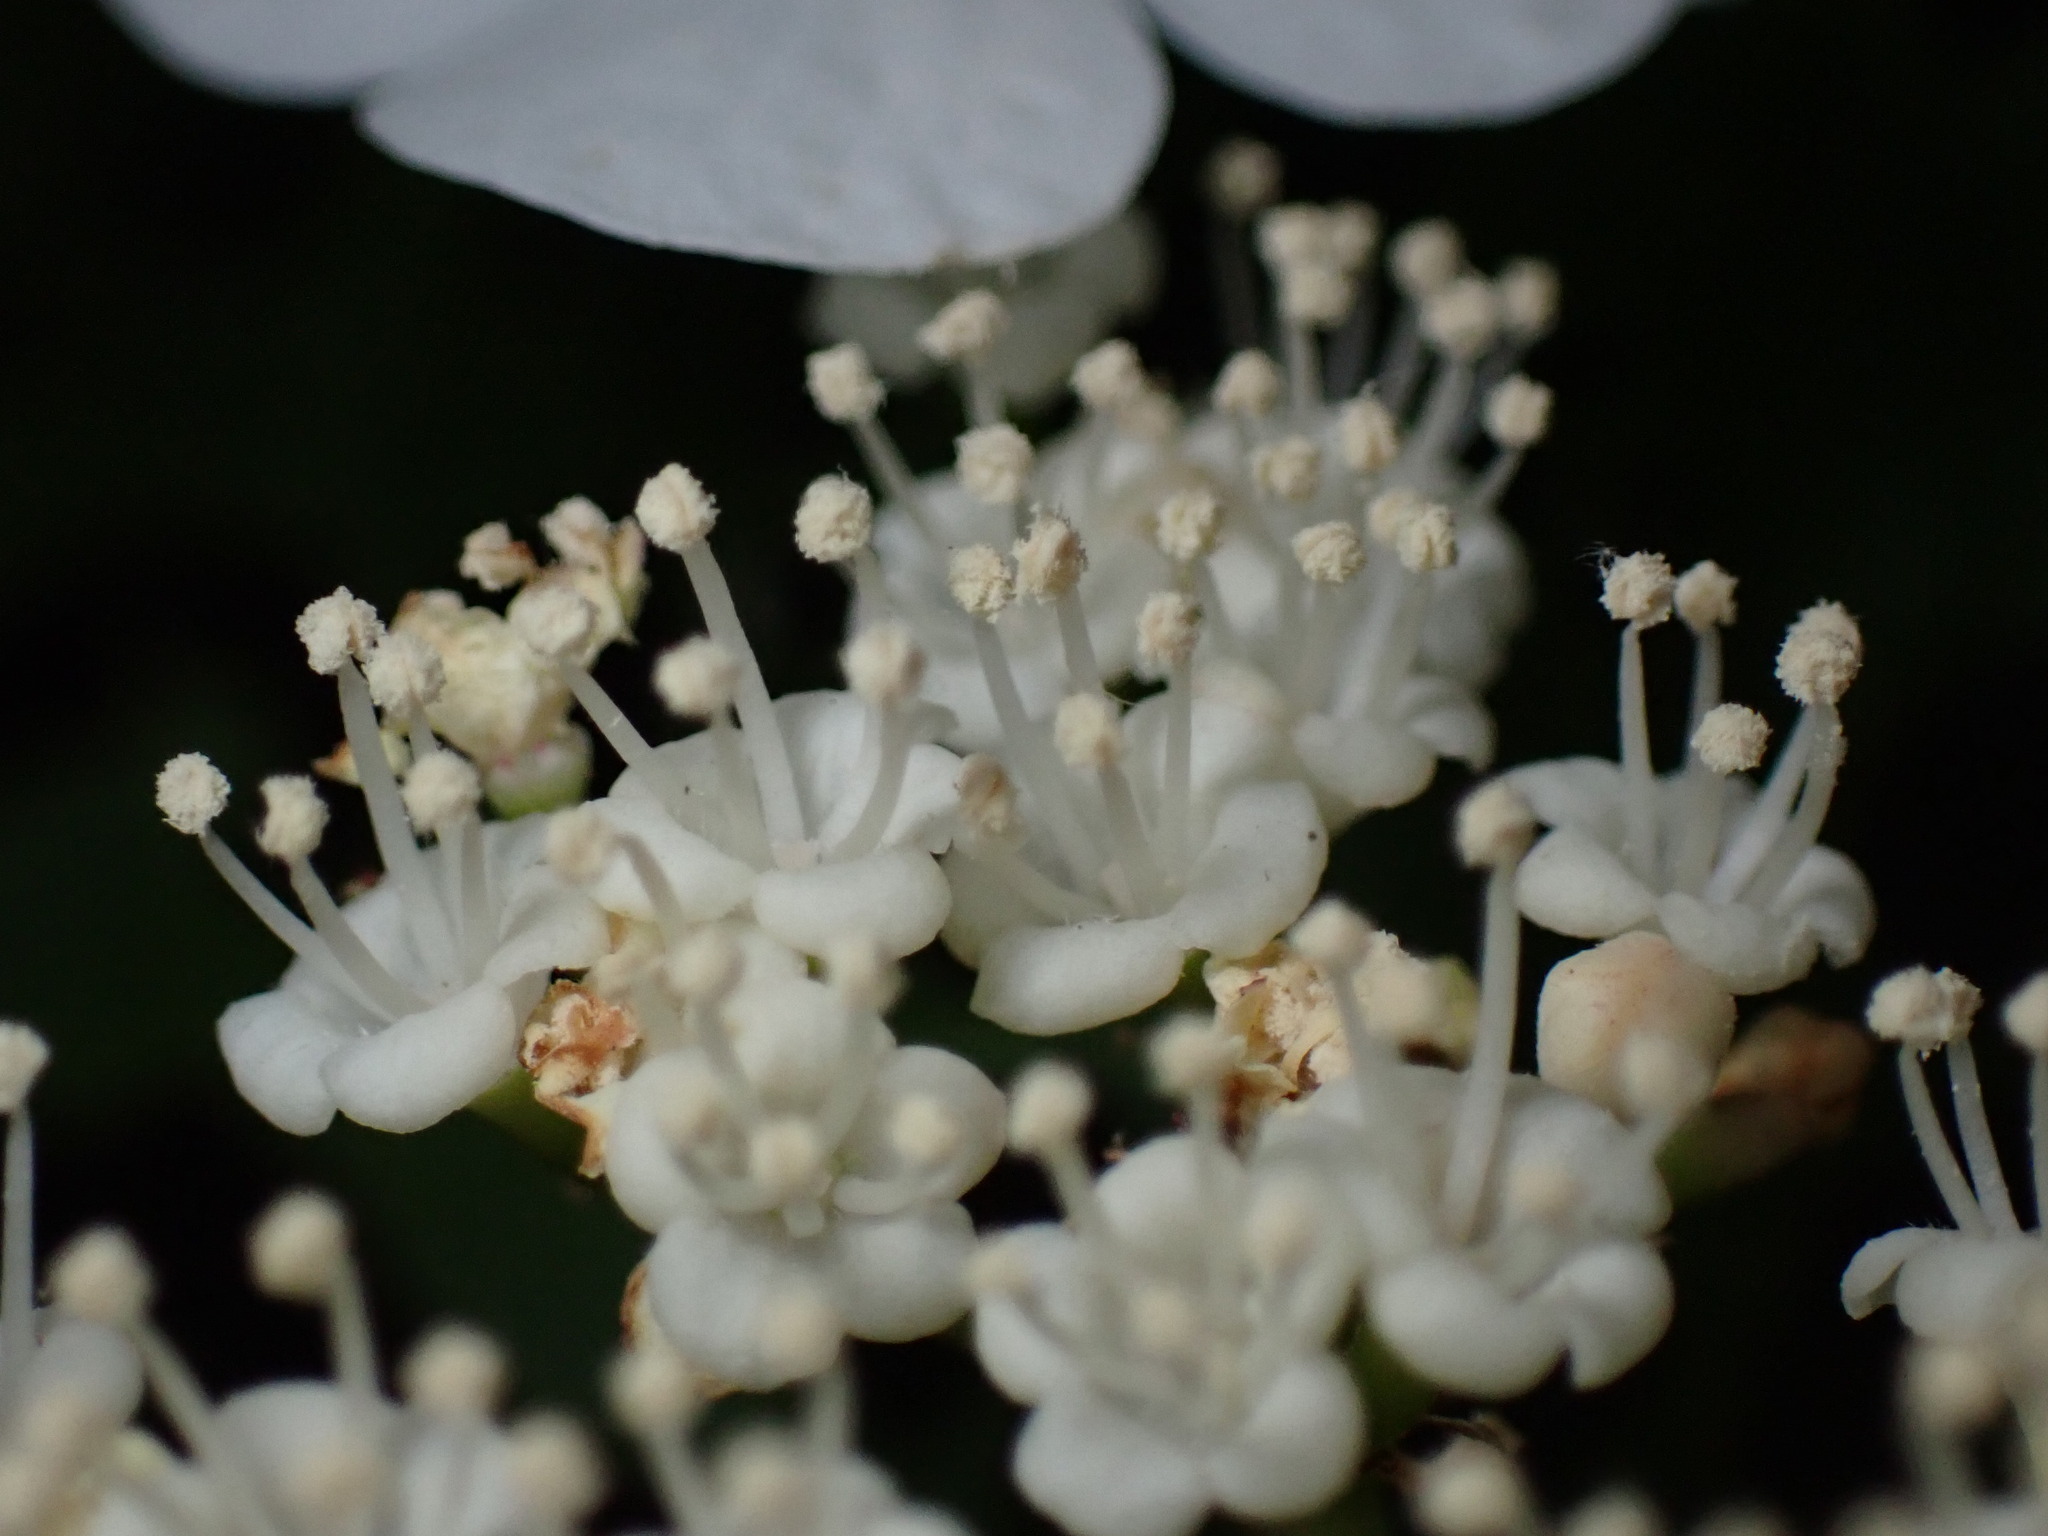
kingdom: Plantae
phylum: Tracheophyta
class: Magnoliopsida
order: Dipsacales
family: Viburnaceae
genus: Viburnum
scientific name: Viburnum opulus
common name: Guelder-rose
